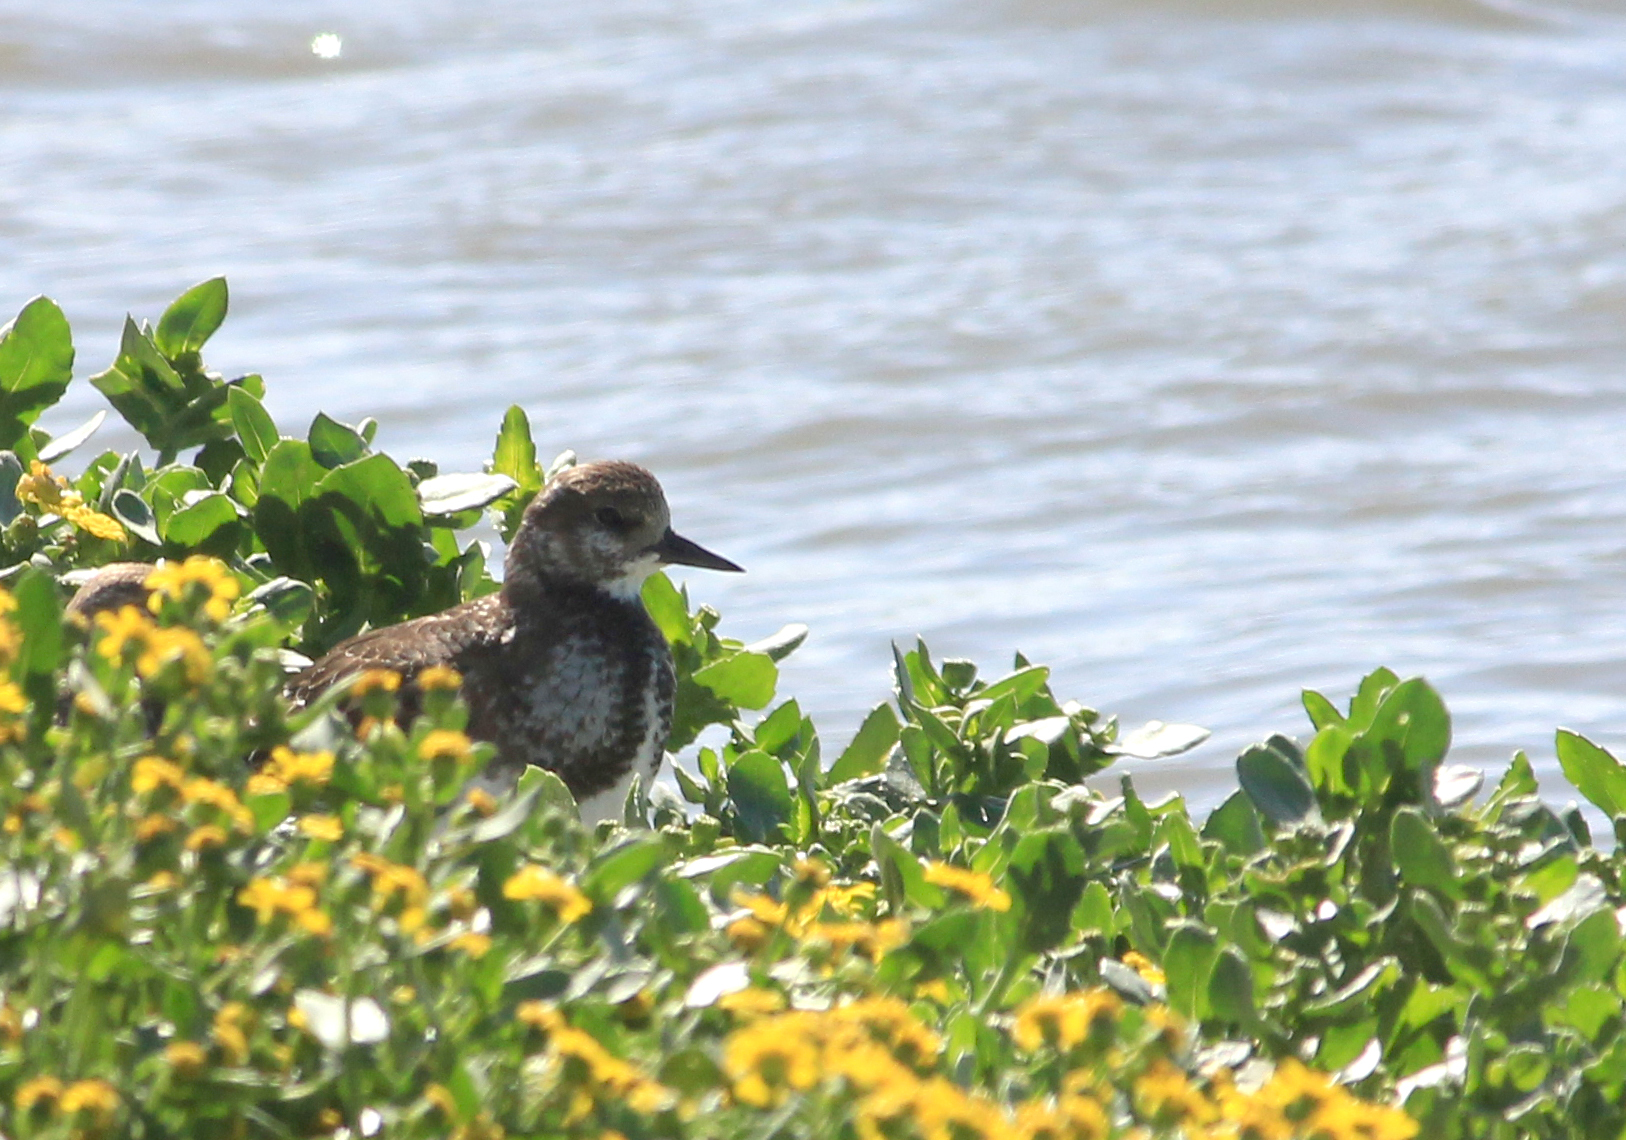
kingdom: Animalia
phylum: Chordata
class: Aves
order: Charadriiformes
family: Scolopacidae
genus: Arenaria
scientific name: Arenaria interpres
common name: Ruddy turnstone
